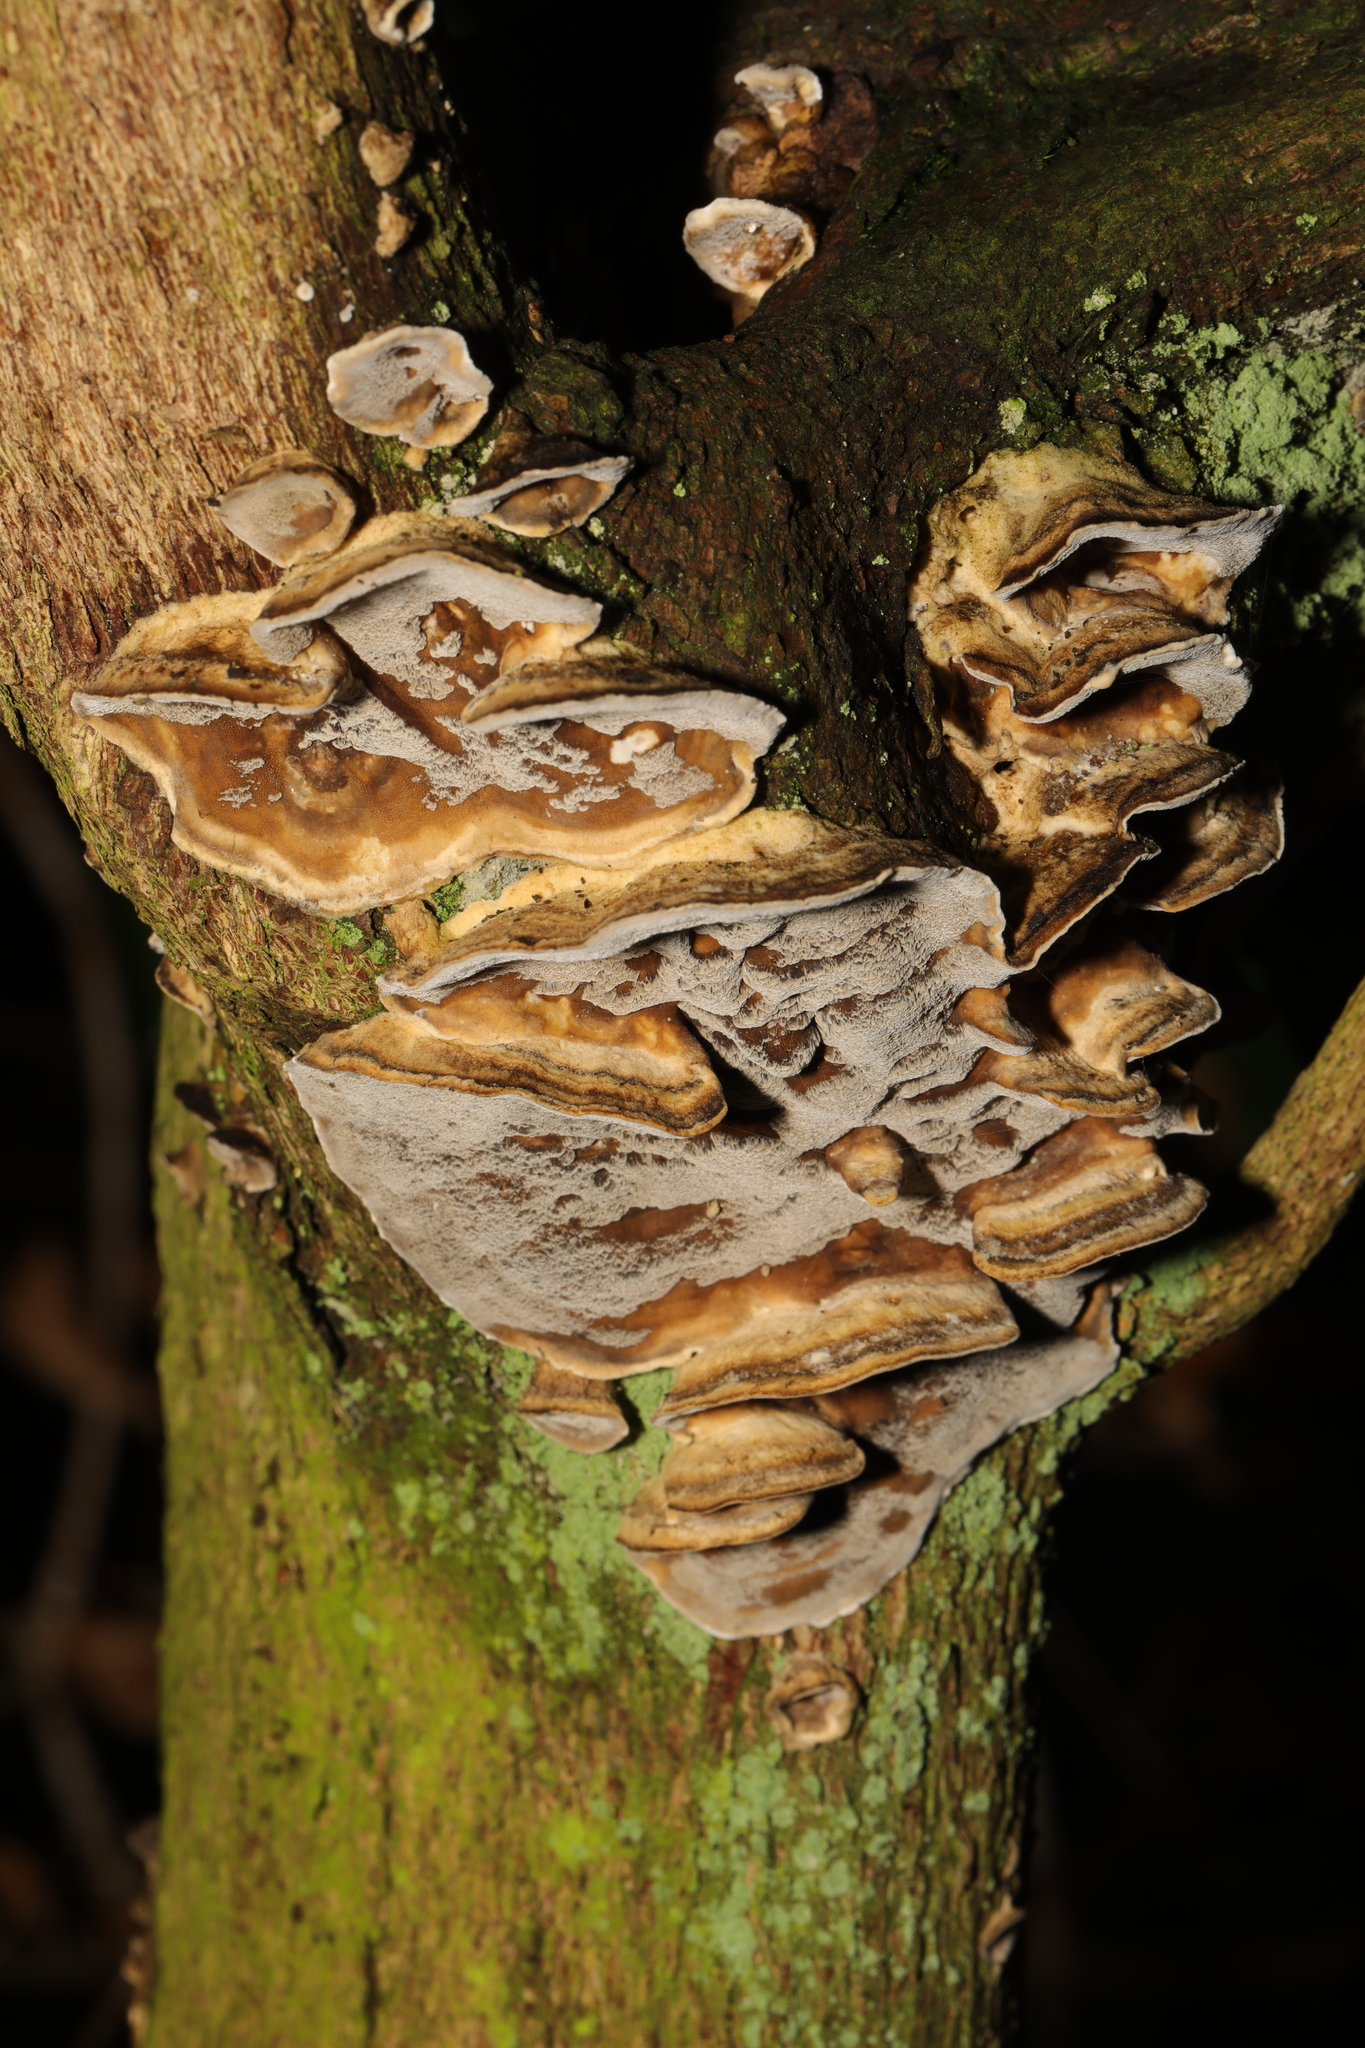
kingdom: Fungi
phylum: Basidiomycota
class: Agaricomycetes
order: Polyporales
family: Phanerochaetaceae
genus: Bjerkandera
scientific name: Bjerkandera adusta
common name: Smoky bracket
